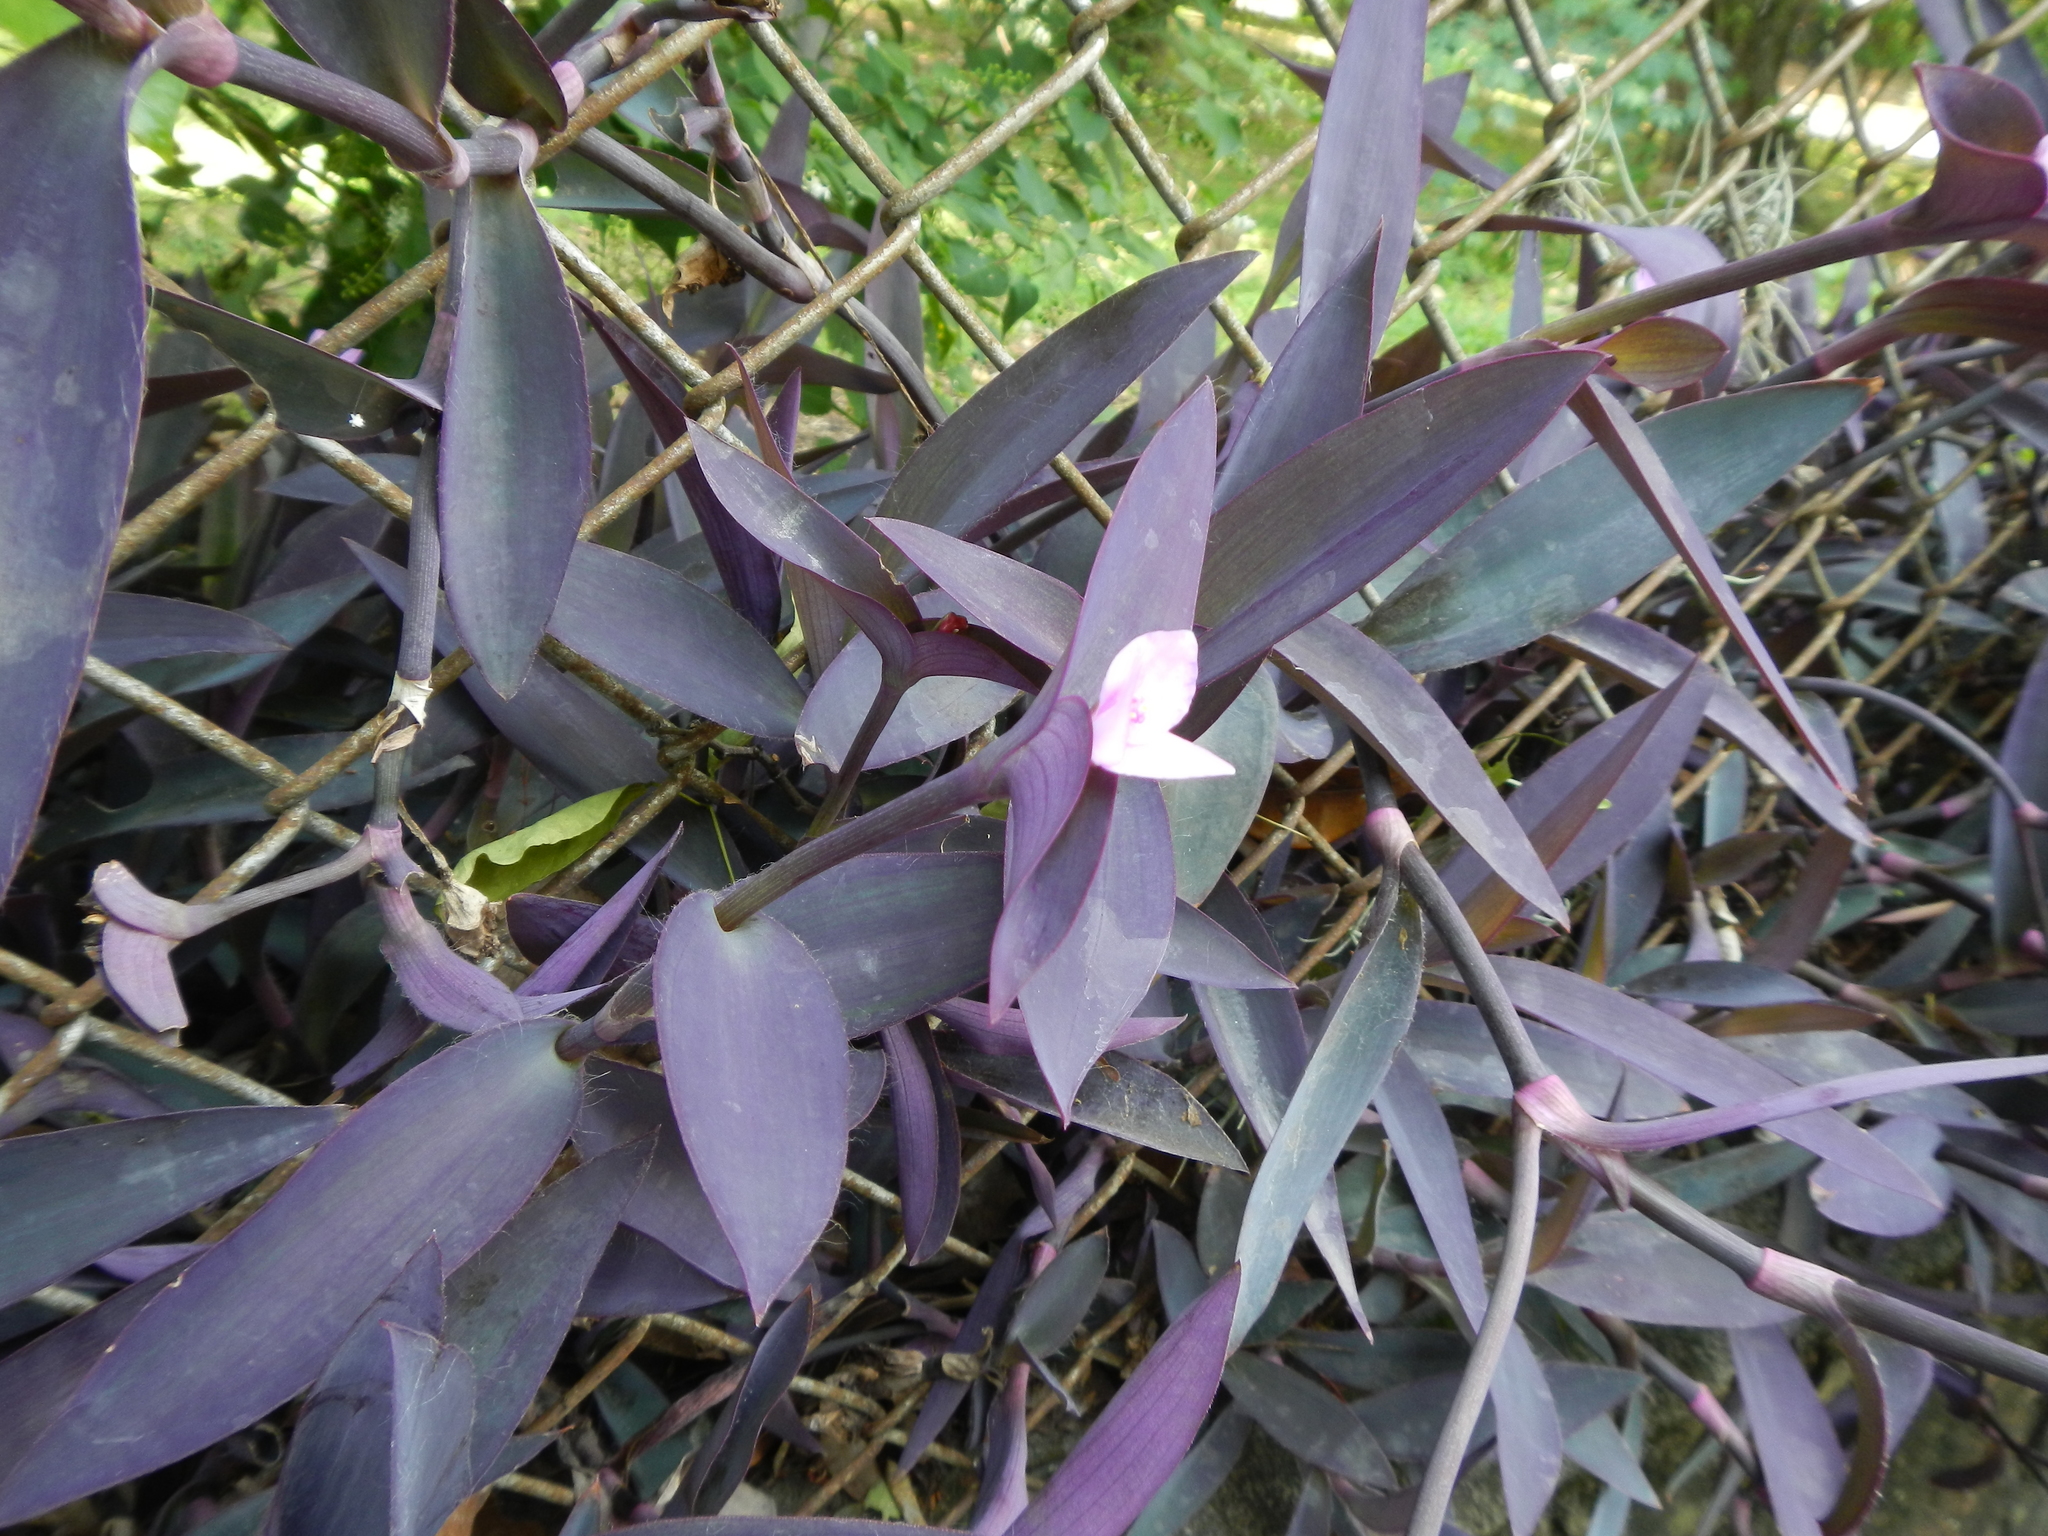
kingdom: Plantae
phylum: Tracheophyta
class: Liliopsida
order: Commelinales
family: Commelinaceae
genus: Tradescantia
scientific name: Tradescantia pallida
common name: Purpleheart
